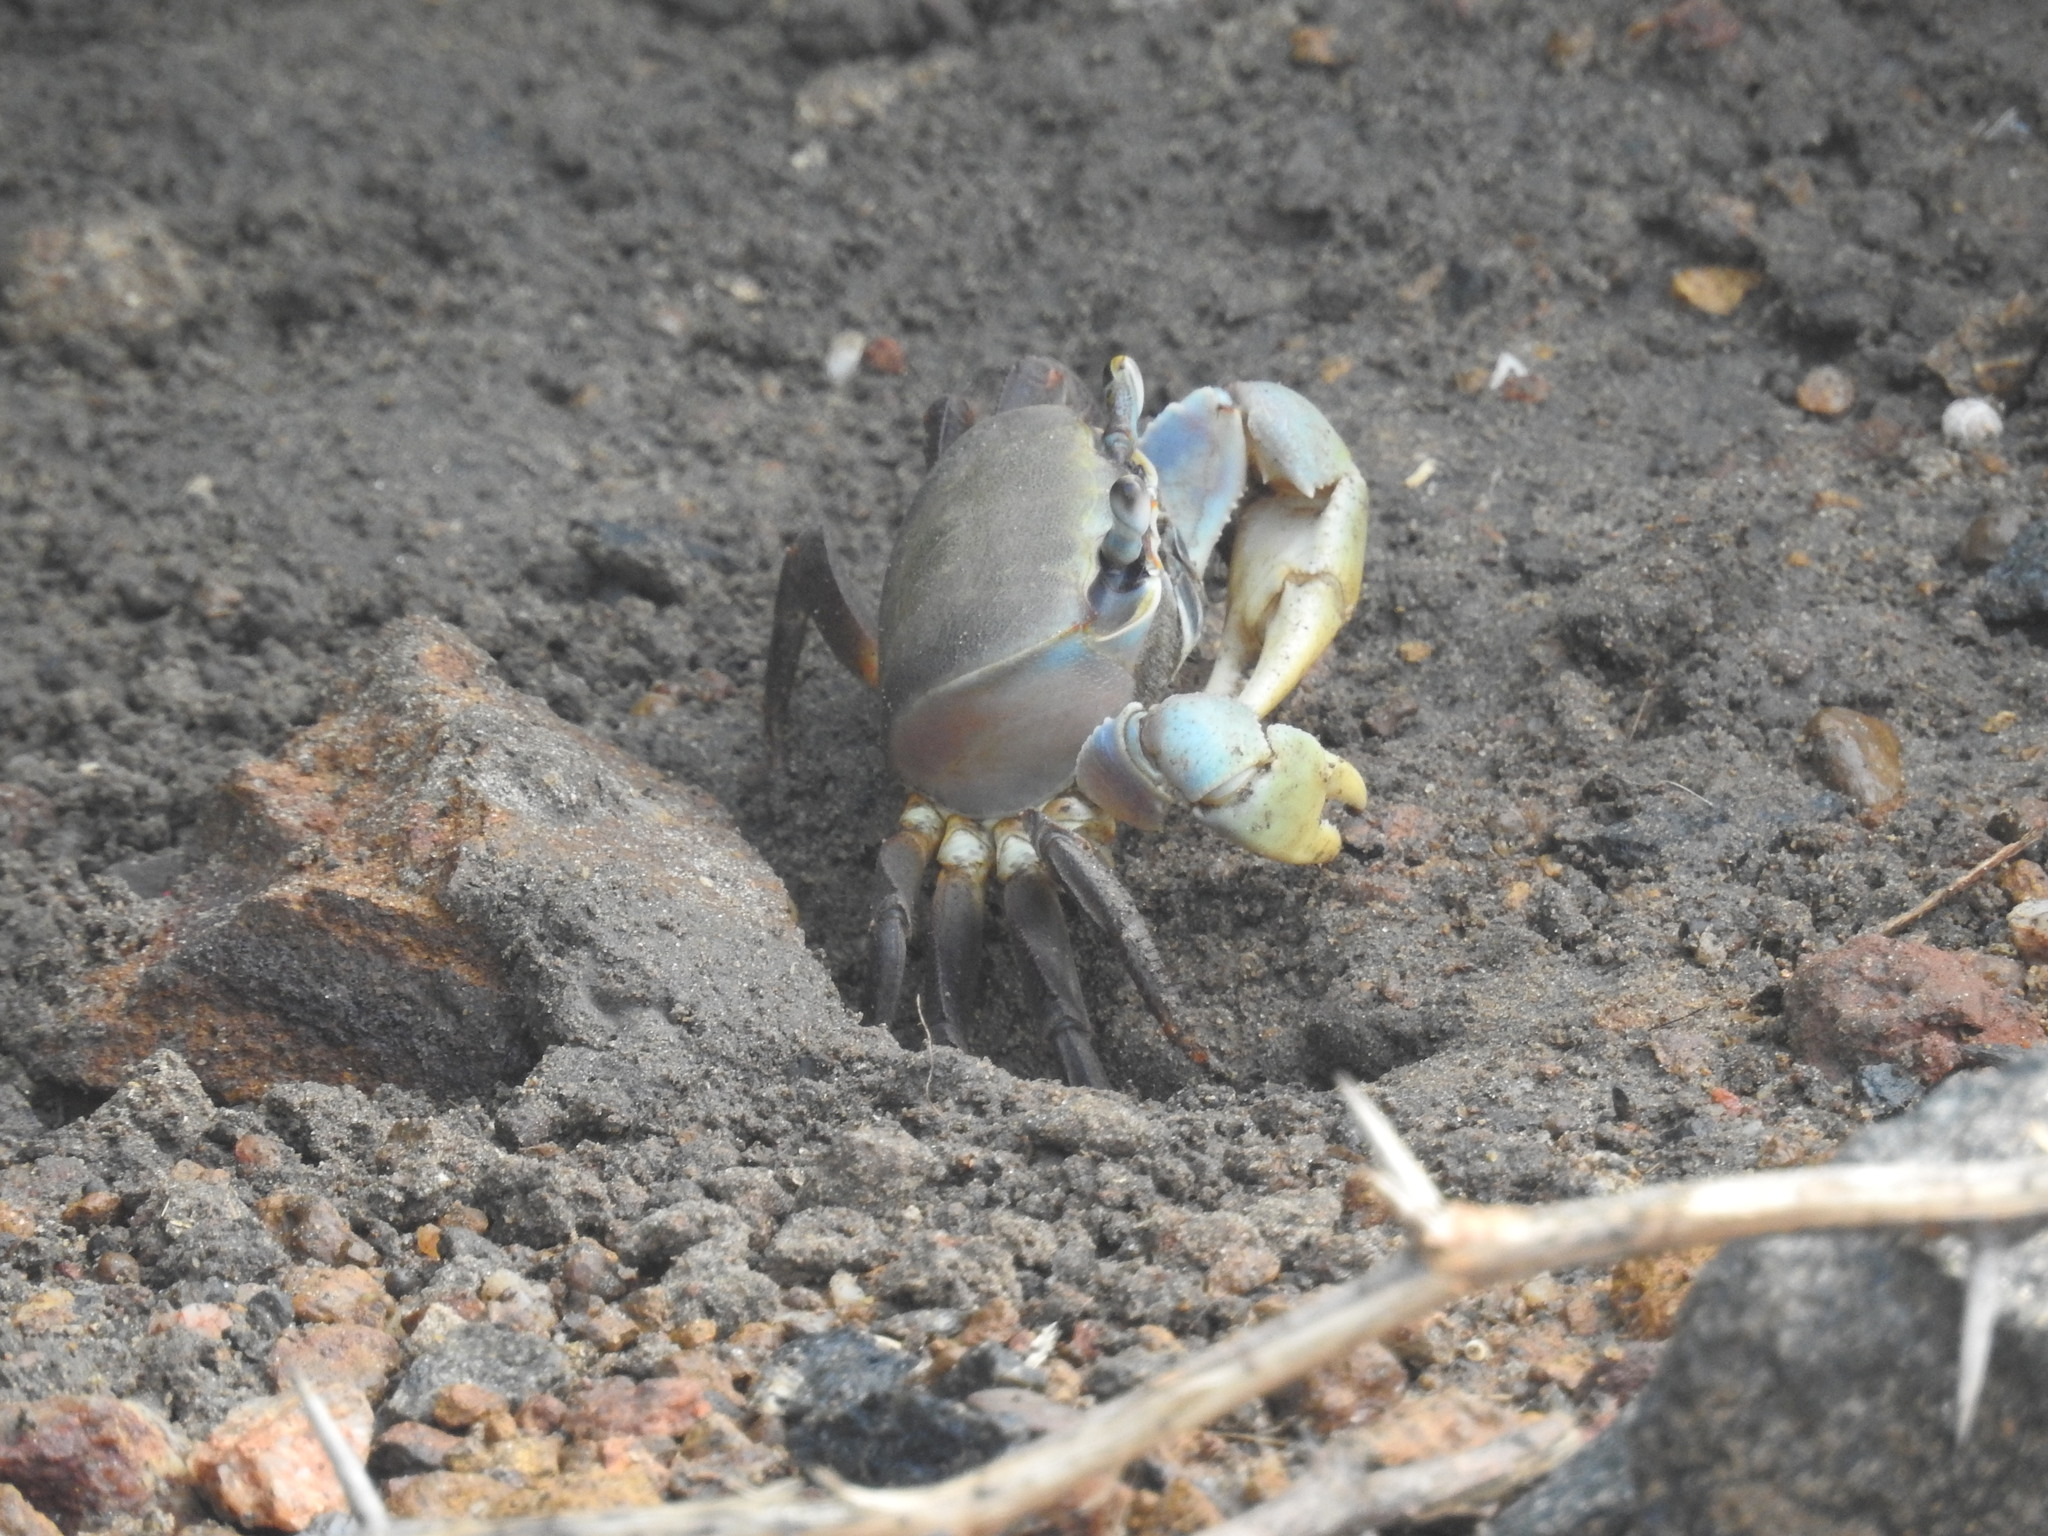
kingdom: Animalia
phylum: Arthropoda
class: Malacostraca
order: Decapoda
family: Gecarcinidae
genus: Cardisoma
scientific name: Cardisoma carnifex
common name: Brown land crab
